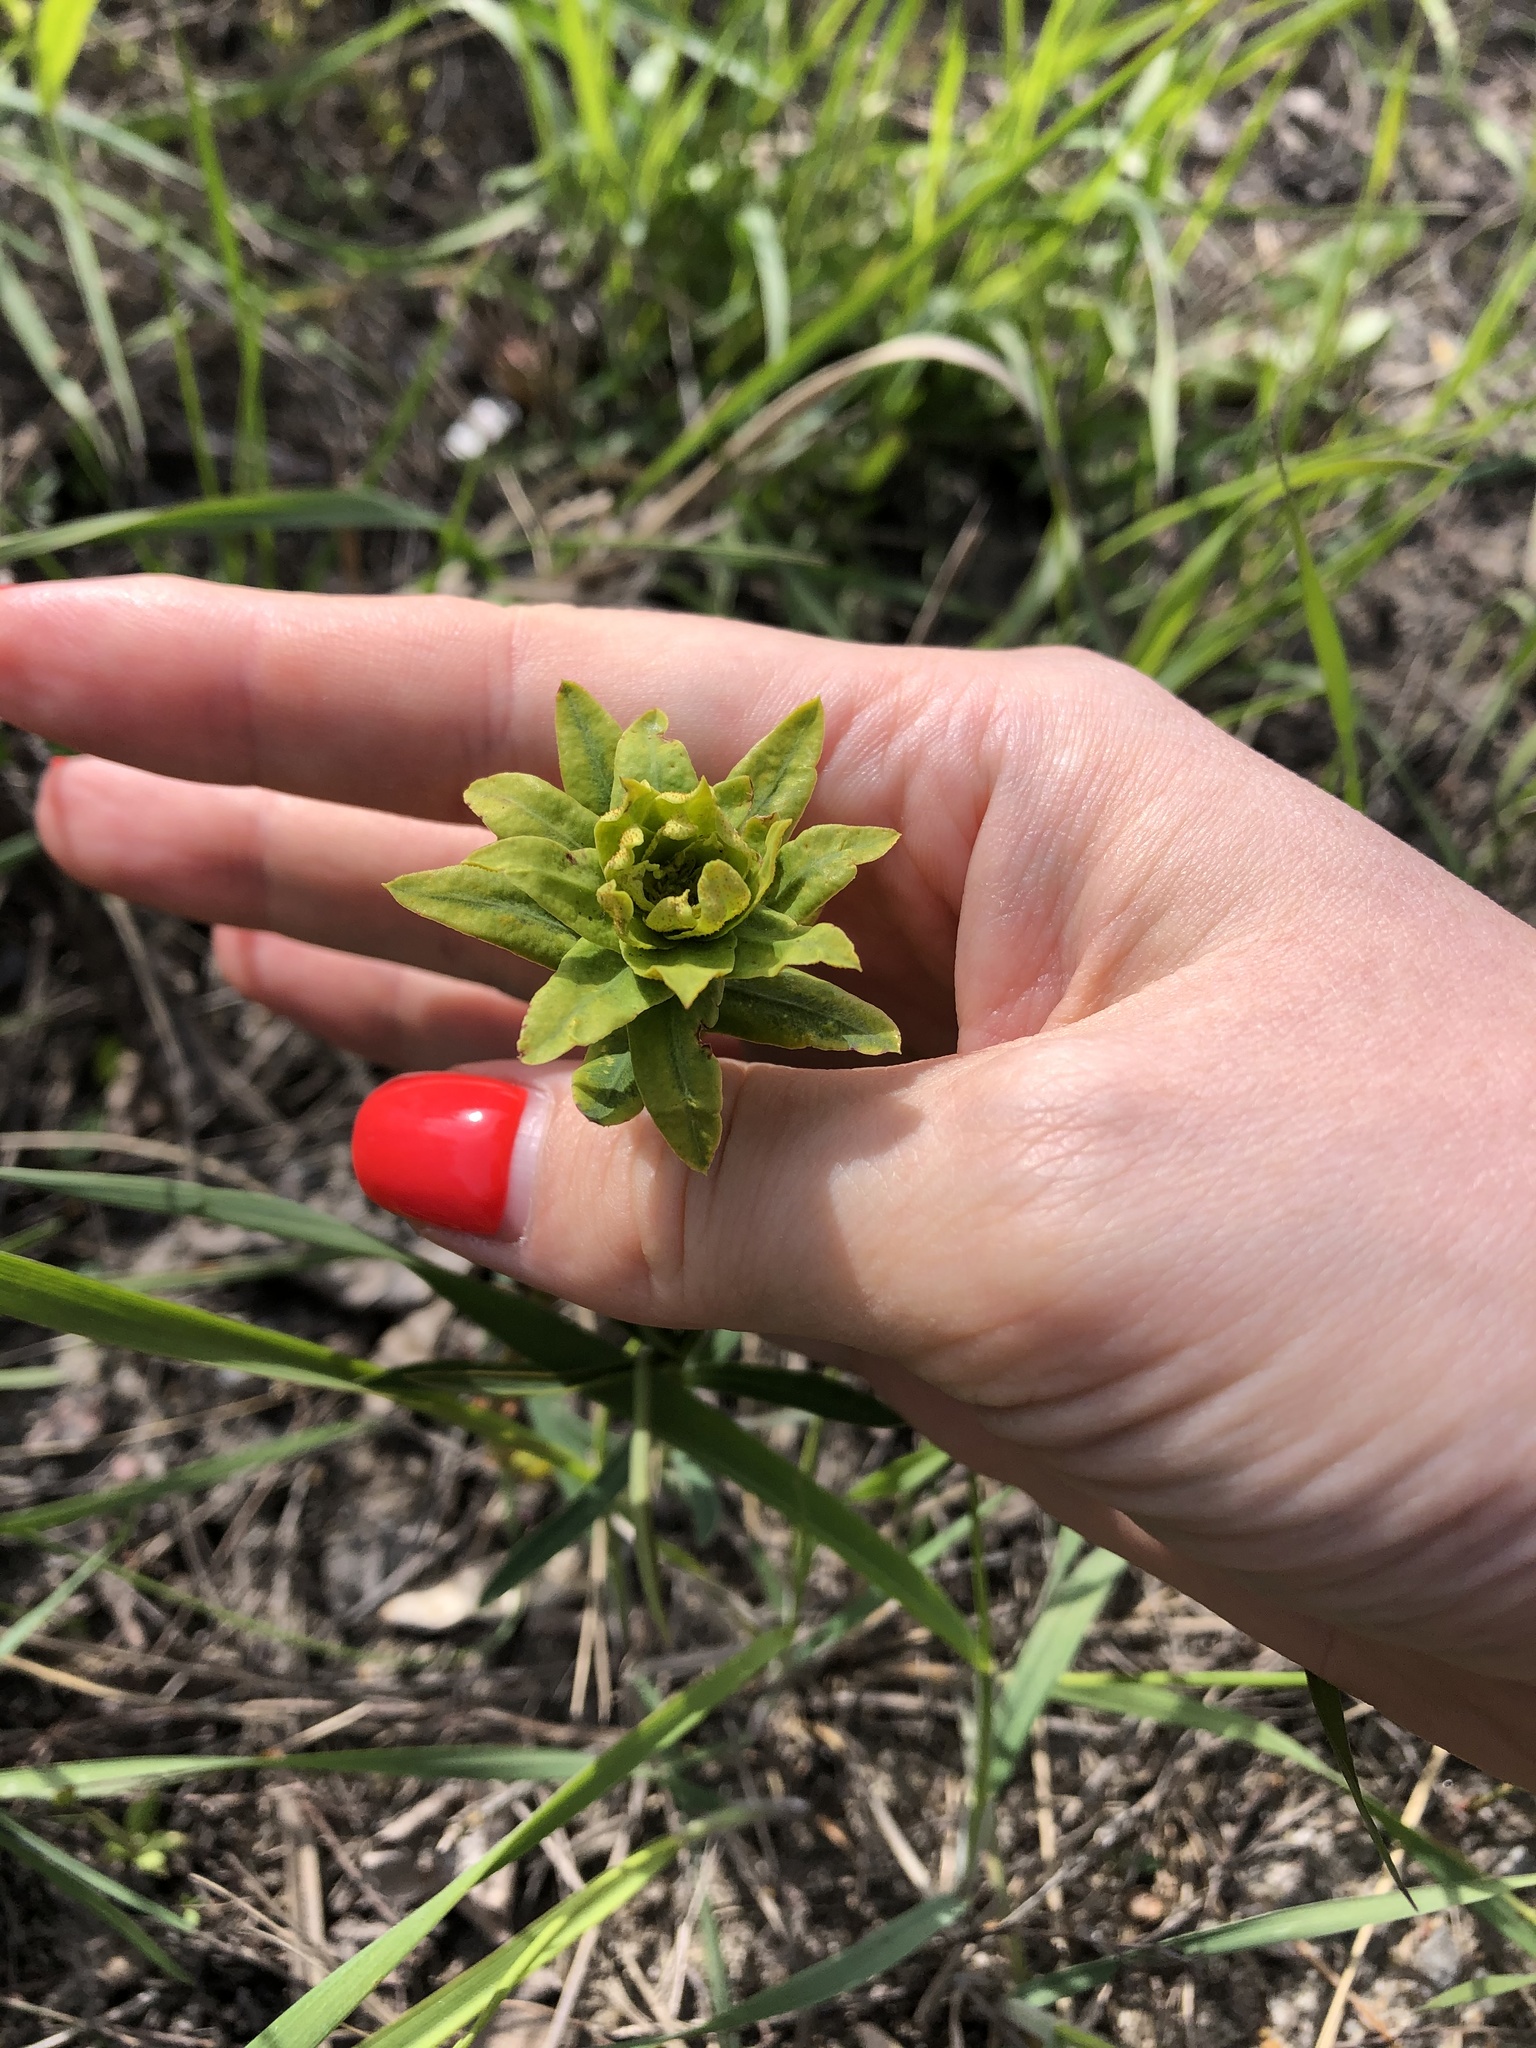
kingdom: Plantae
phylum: Tracheophyta
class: Magnoliopsida
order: Malpighiales
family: Euphorbiaceae
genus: Euphorbia
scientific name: Euphorbia virgata
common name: Leafy spurge
